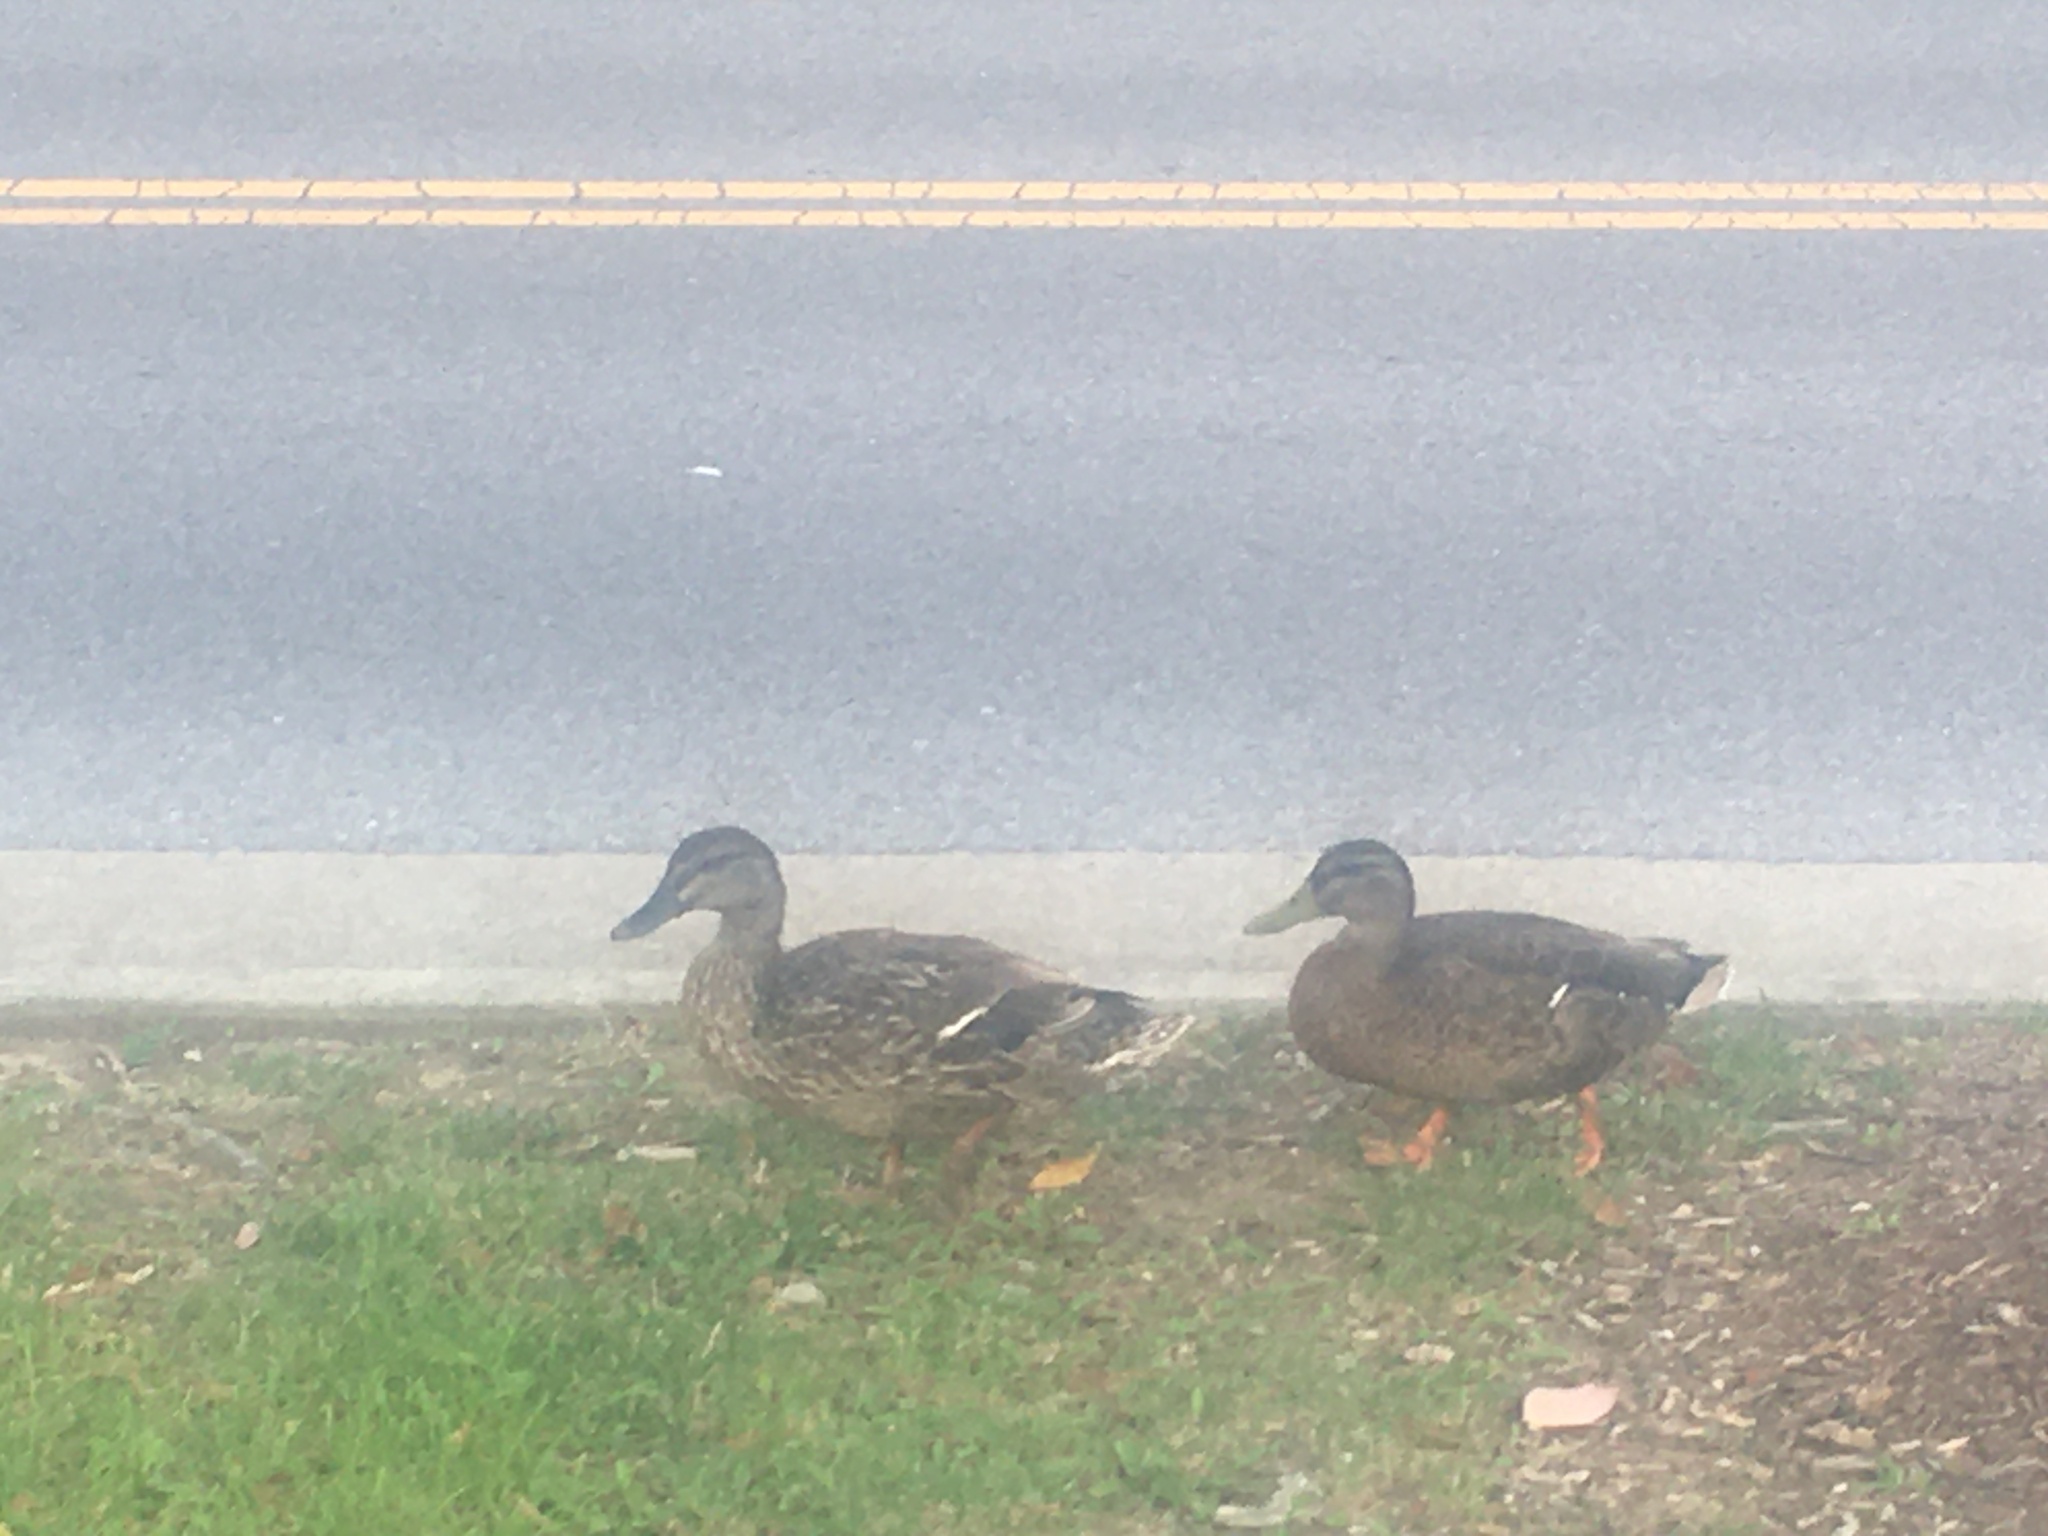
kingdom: Animalia
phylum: Chordata
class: Aves
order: Anseriformes
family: Anatidae
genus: Anas
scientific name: Anas platyrhynchos
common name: Mallard
